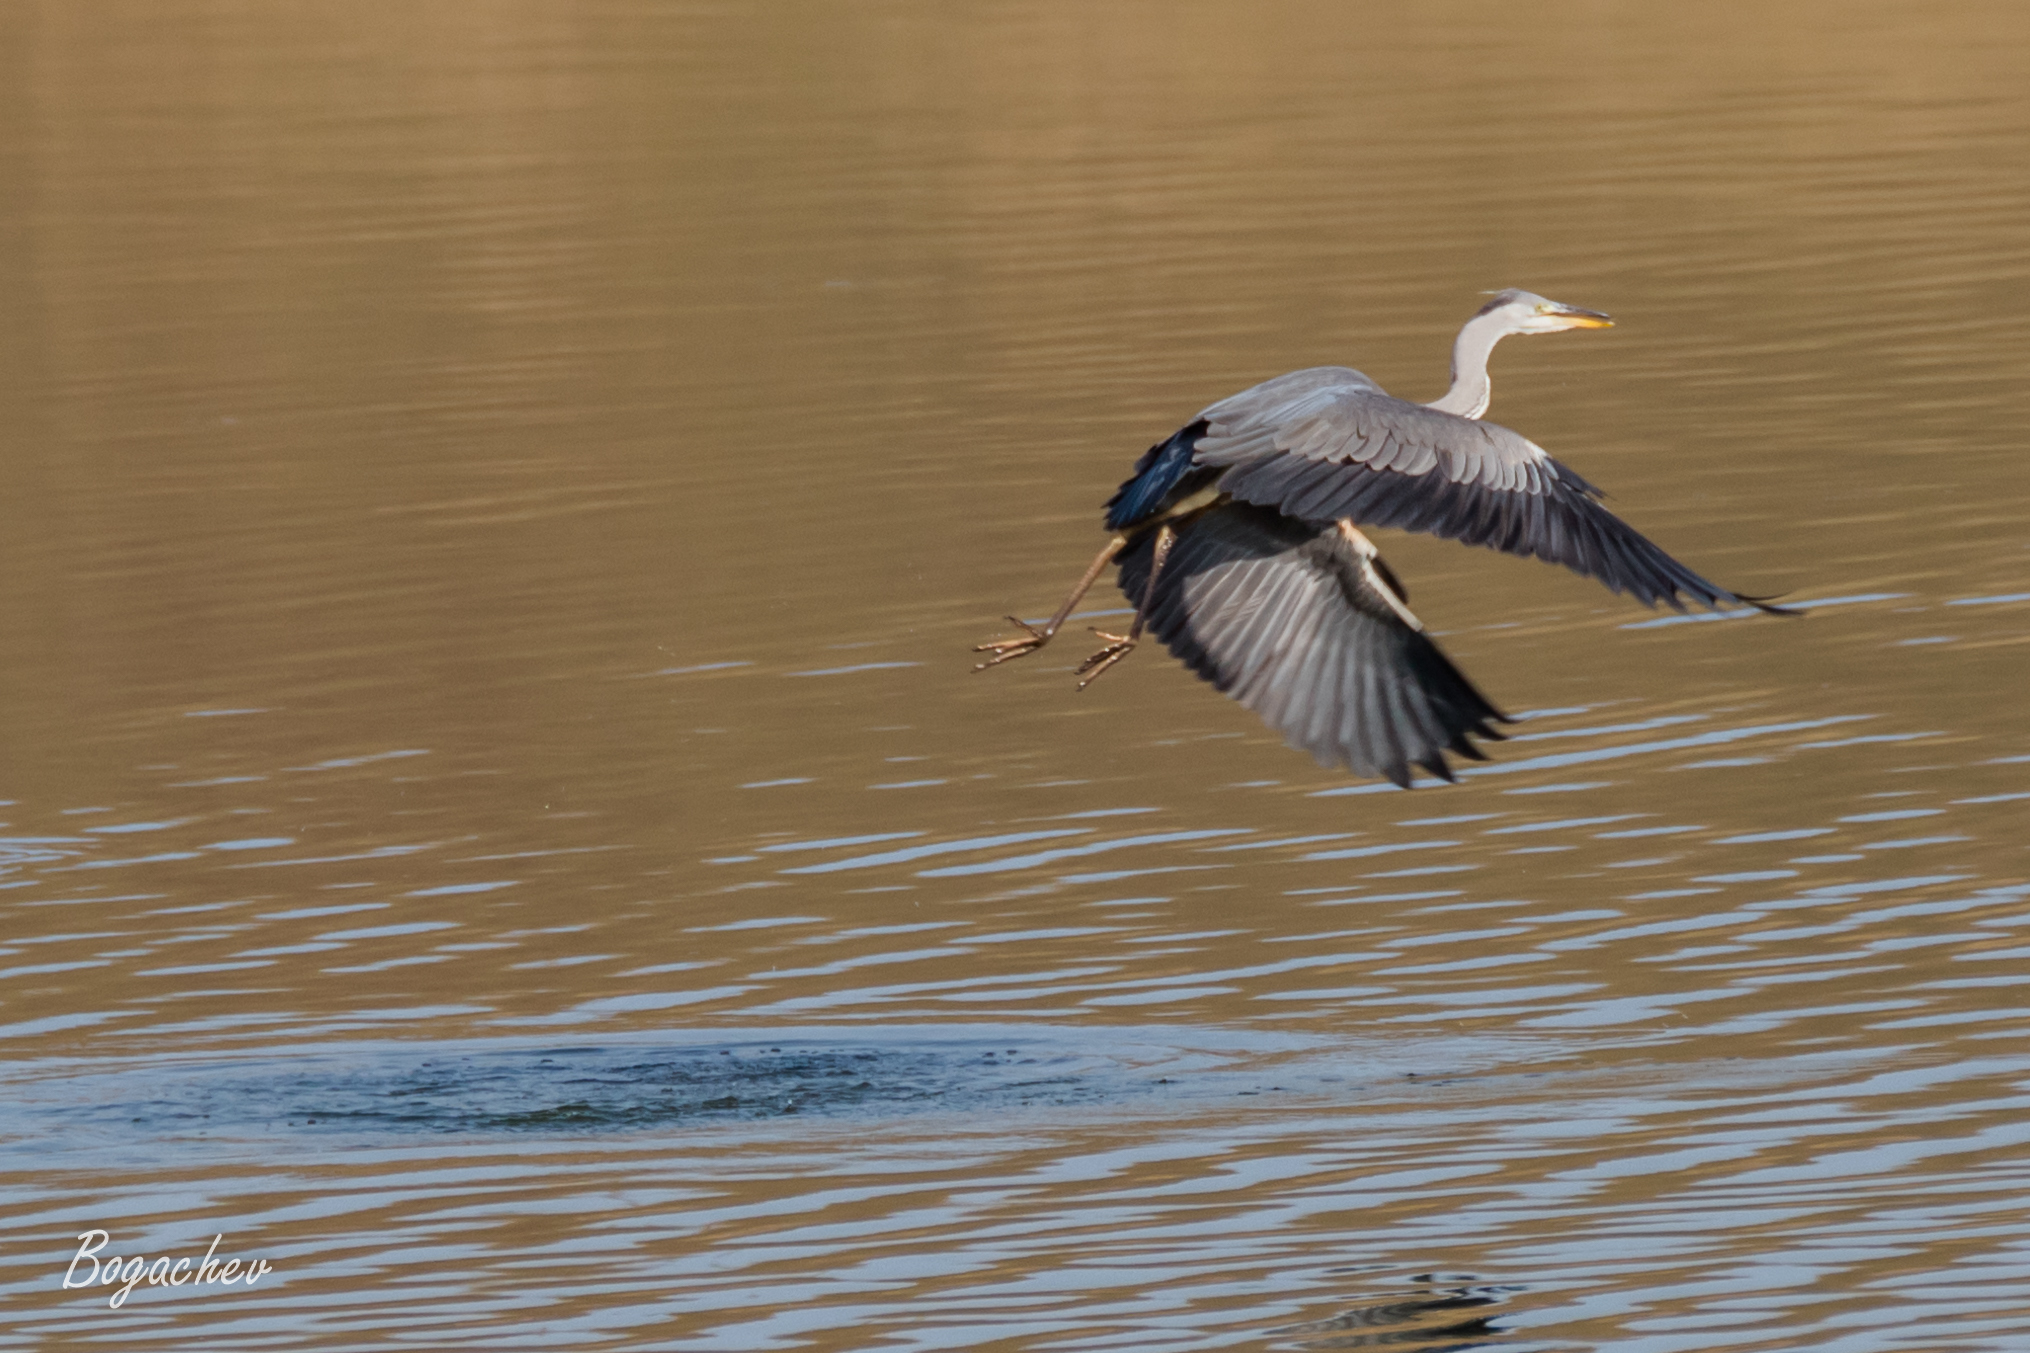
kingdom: Animalia
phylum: Chordata
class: Aves
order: Pelecaniformes
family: Ardeidae
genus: Ardea
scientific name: Ardea cinerea
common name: Grey heron
